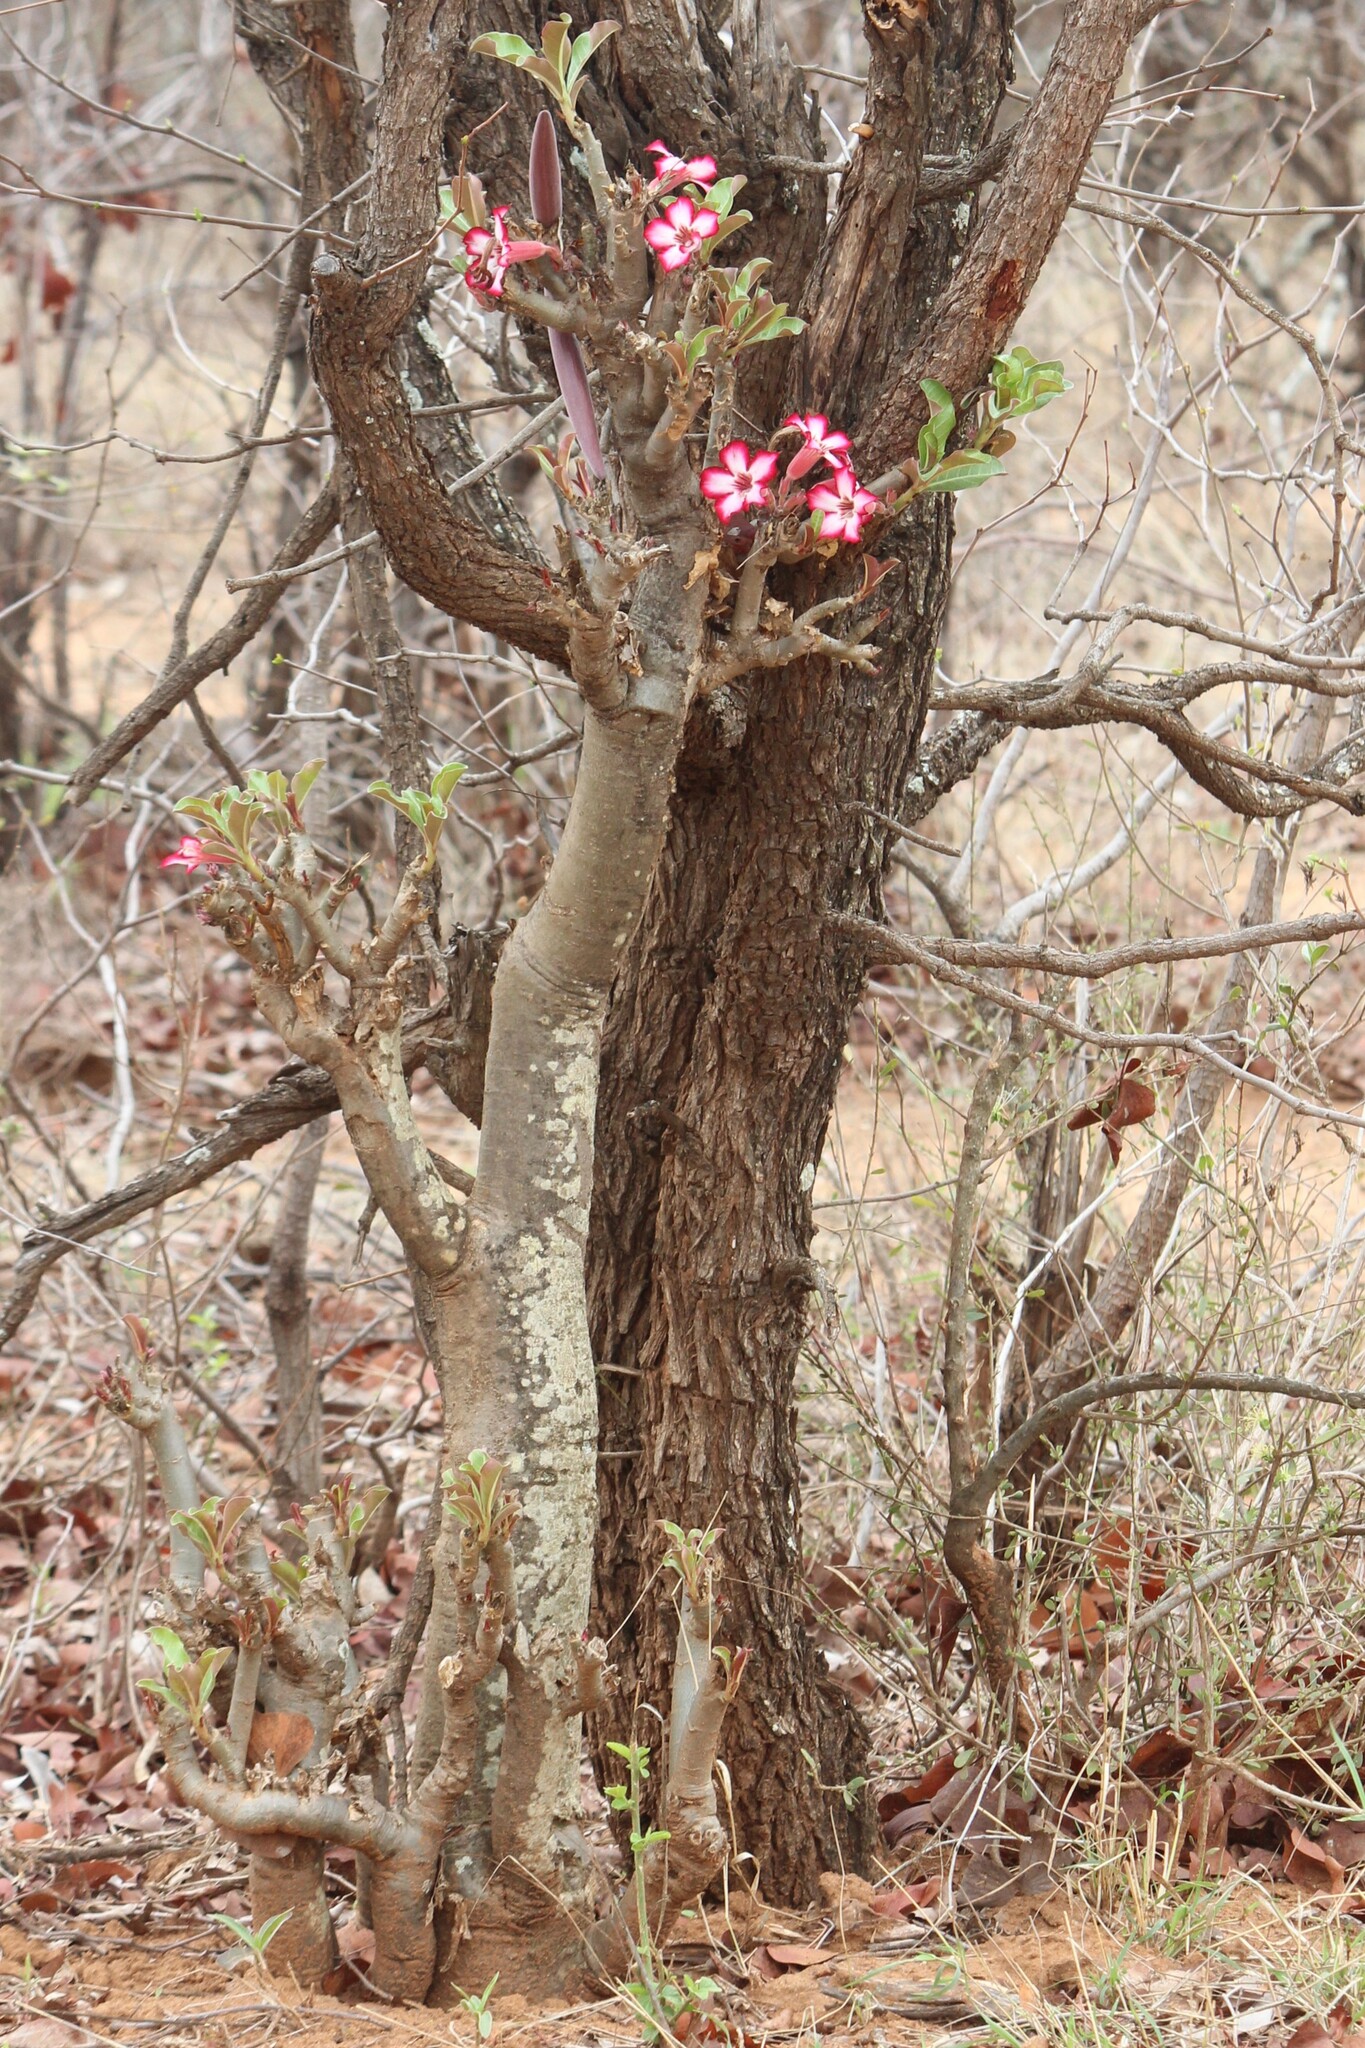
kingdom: Plantae
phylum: Tracheophyta
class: Magnoliopsida
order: Gentianales
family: Apocynaceae
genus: Adenium
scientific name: Adenium obesum
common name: Desert-rose
